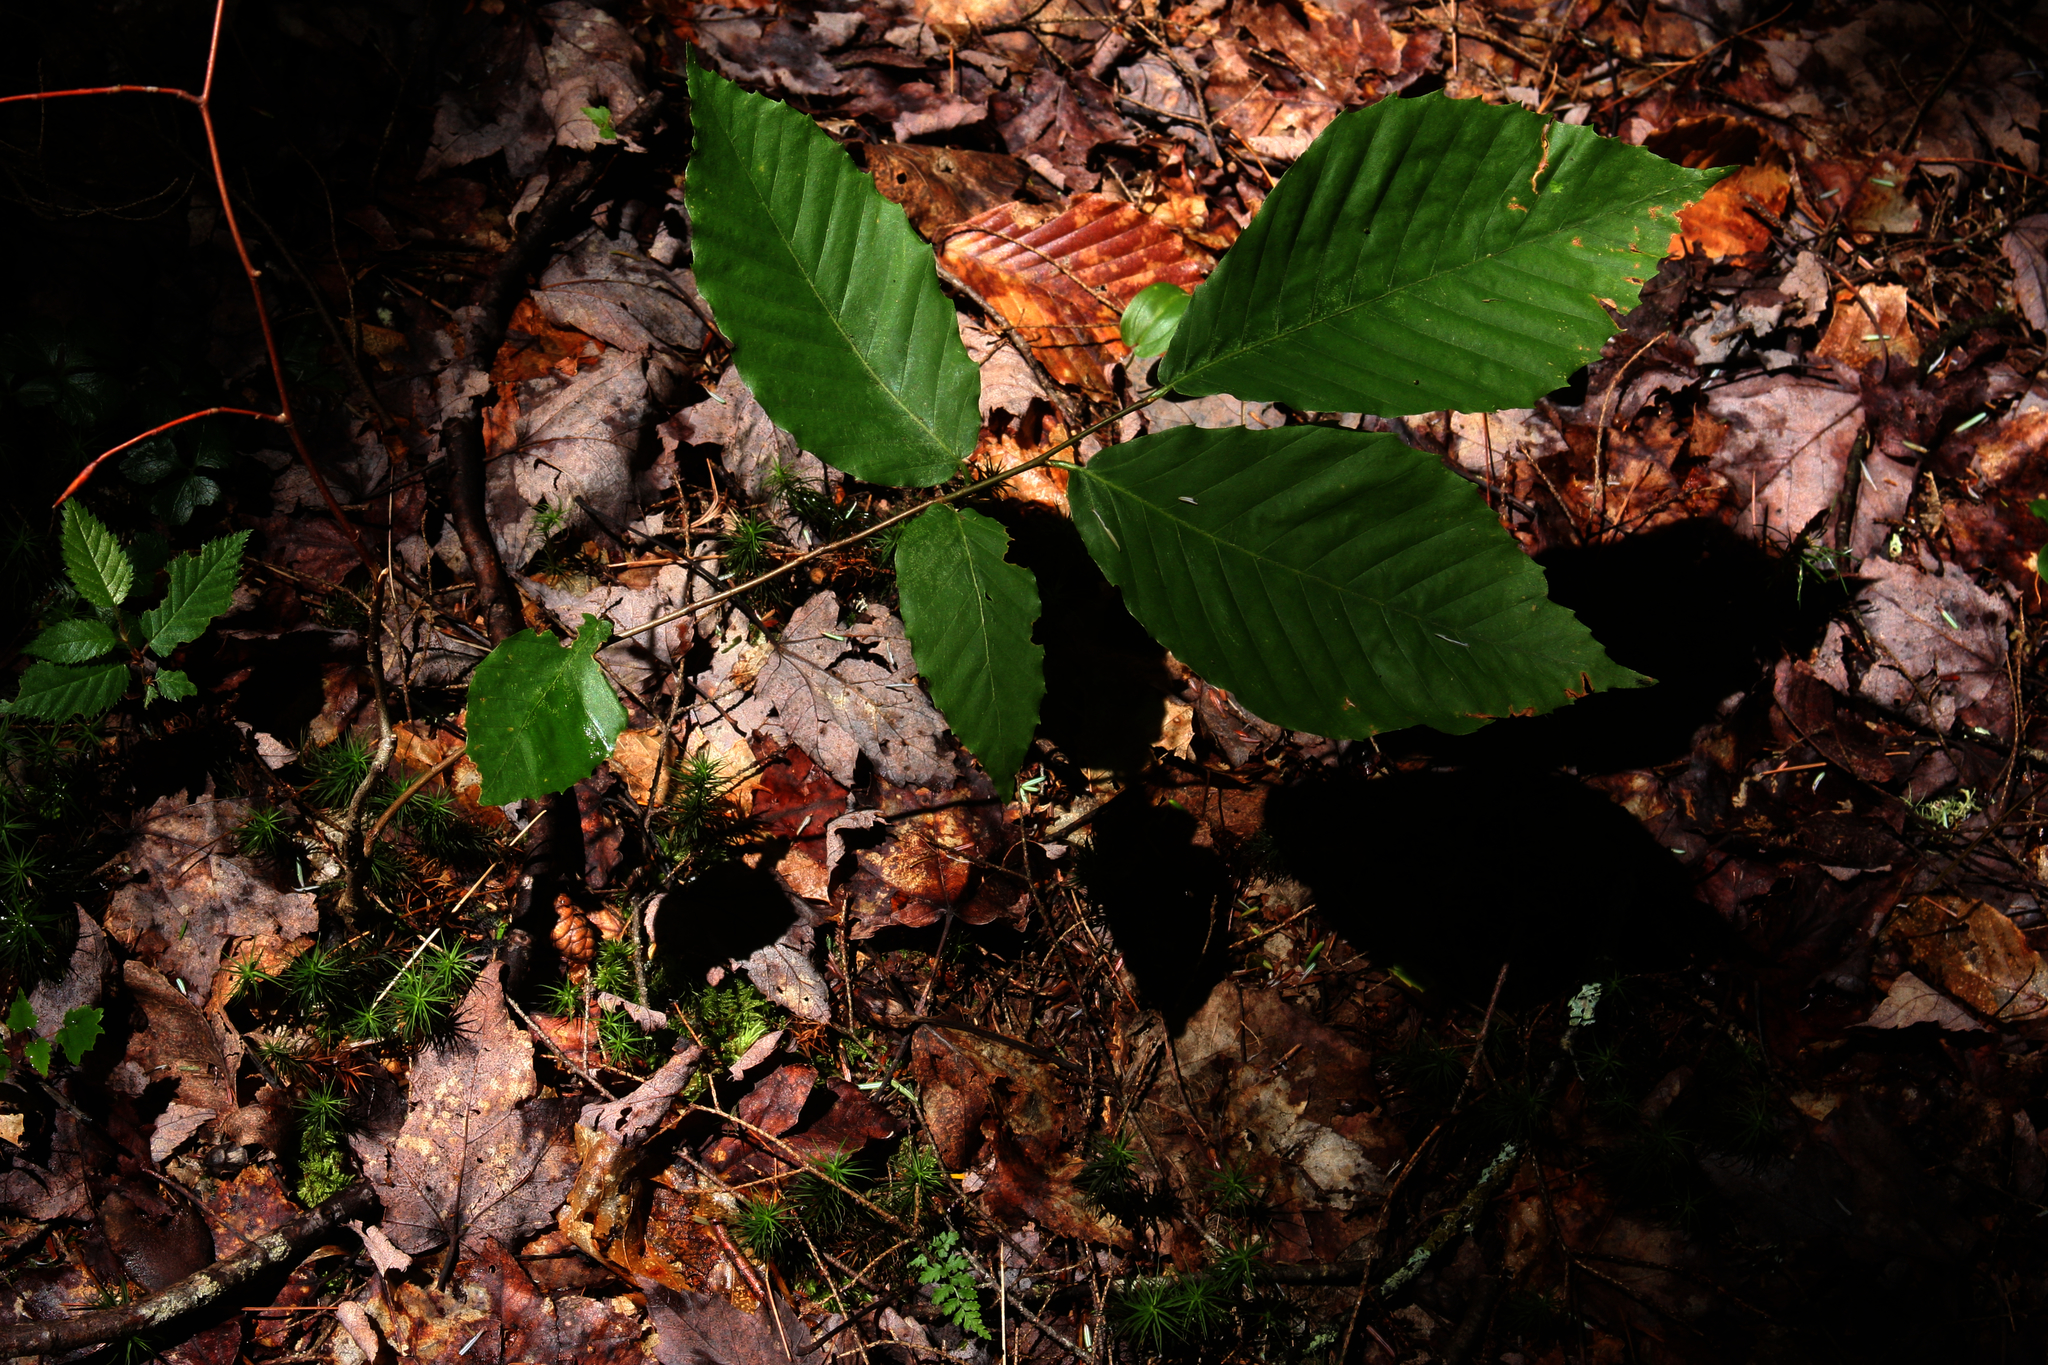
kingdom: Plantae
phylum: Tracheophyta
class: Magnoliopsida
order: Fagales
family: Fagaceae
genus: Fagus
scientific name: Fagus grandifolia
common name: American beech
